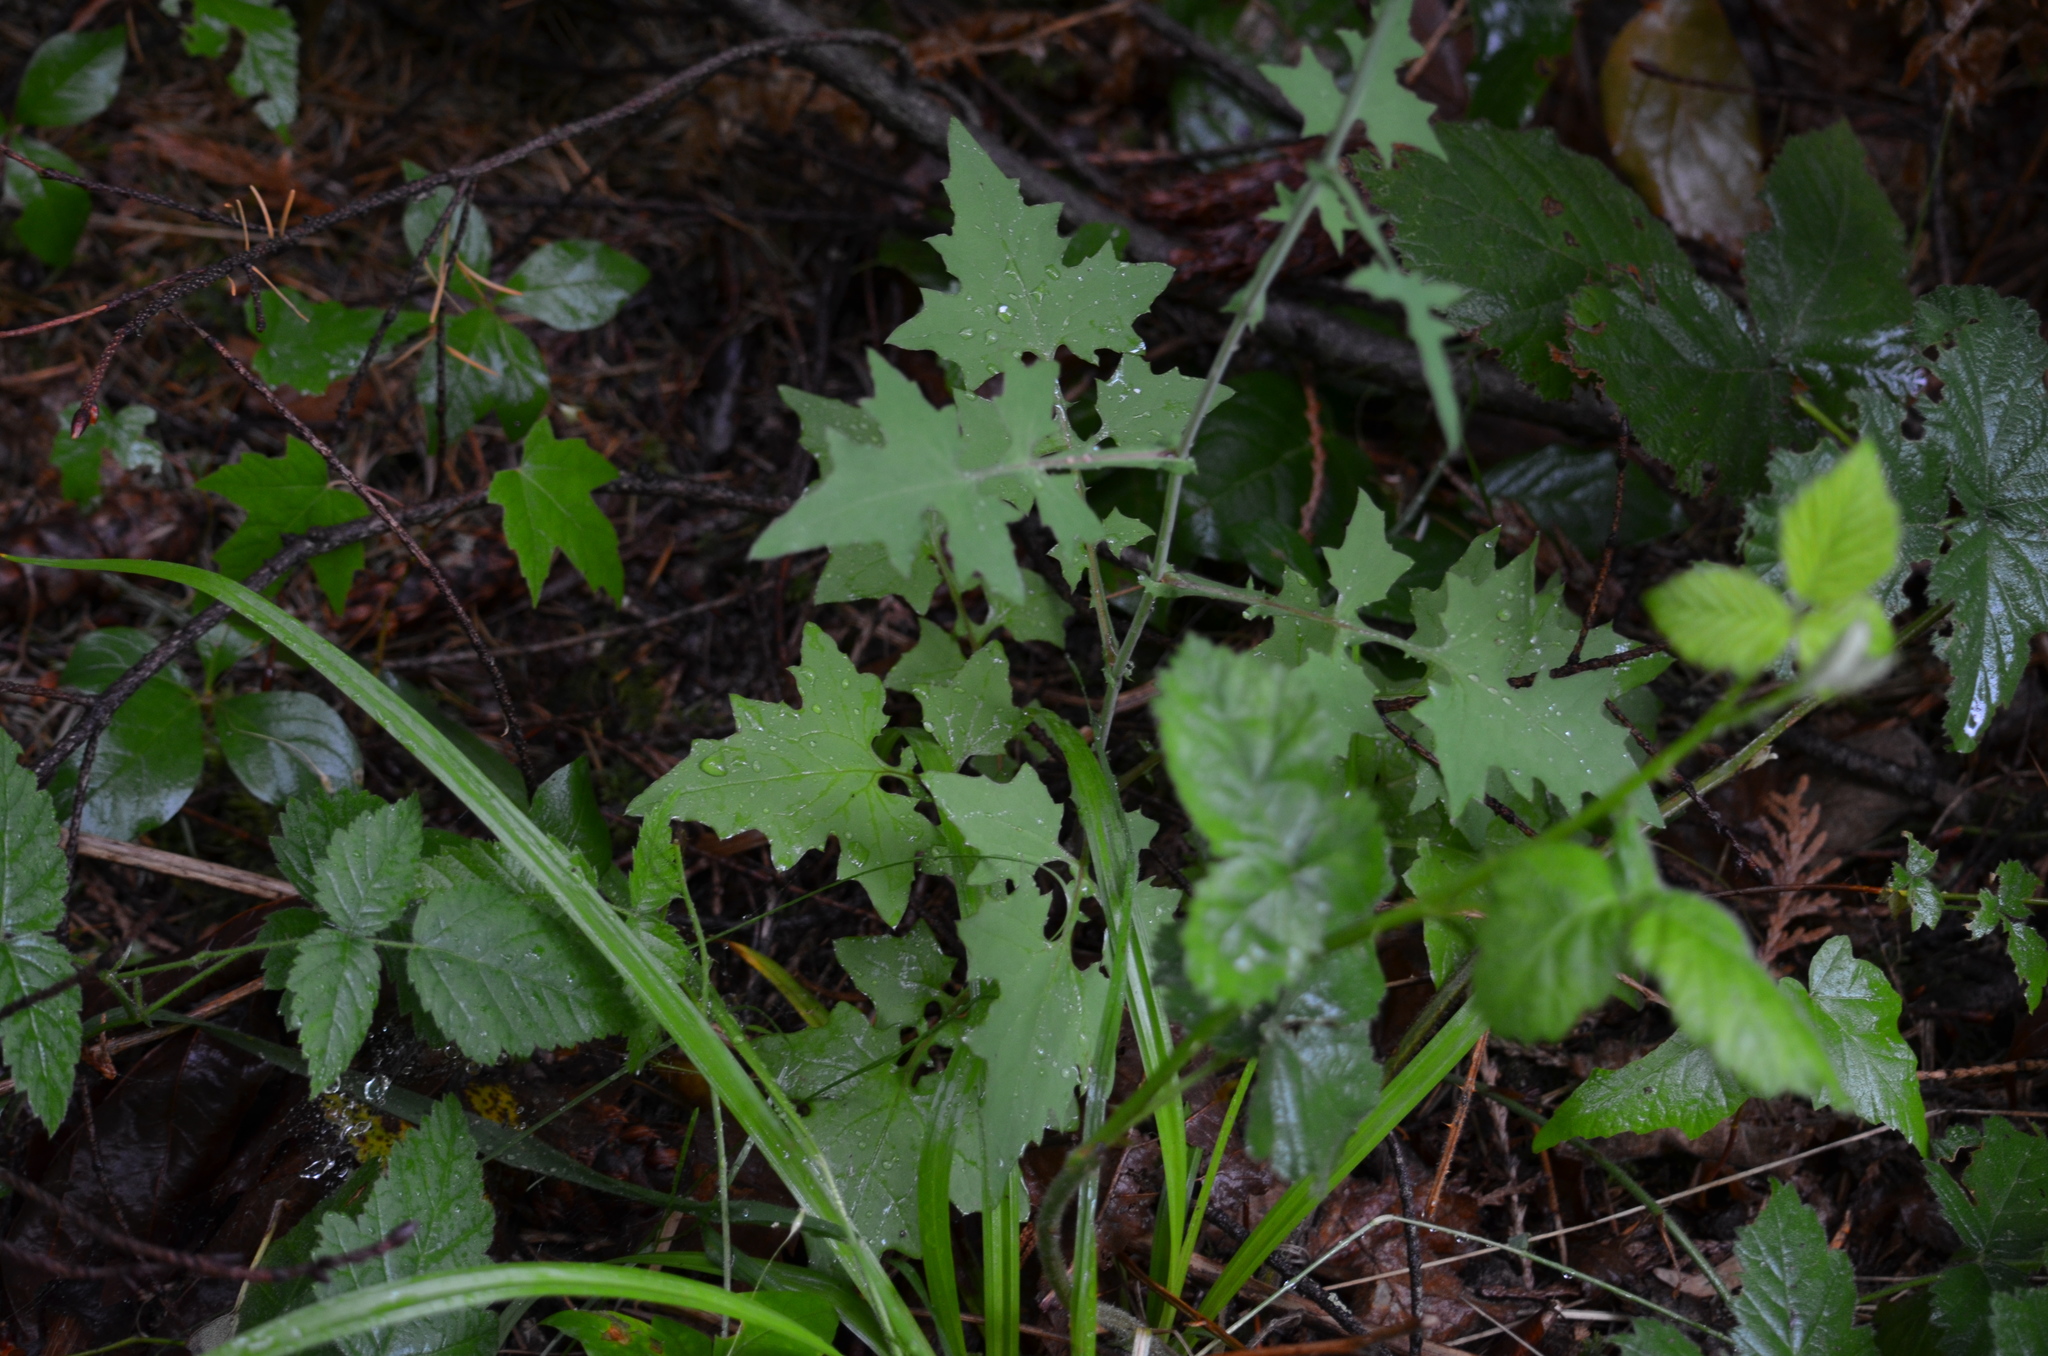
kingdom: Plantae
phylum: Tracheophyta
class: Magnoliopsida
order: Asterales
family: Asteraceae
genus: Mycelis
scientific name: Mycelis muralis
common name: Wall lettuce
